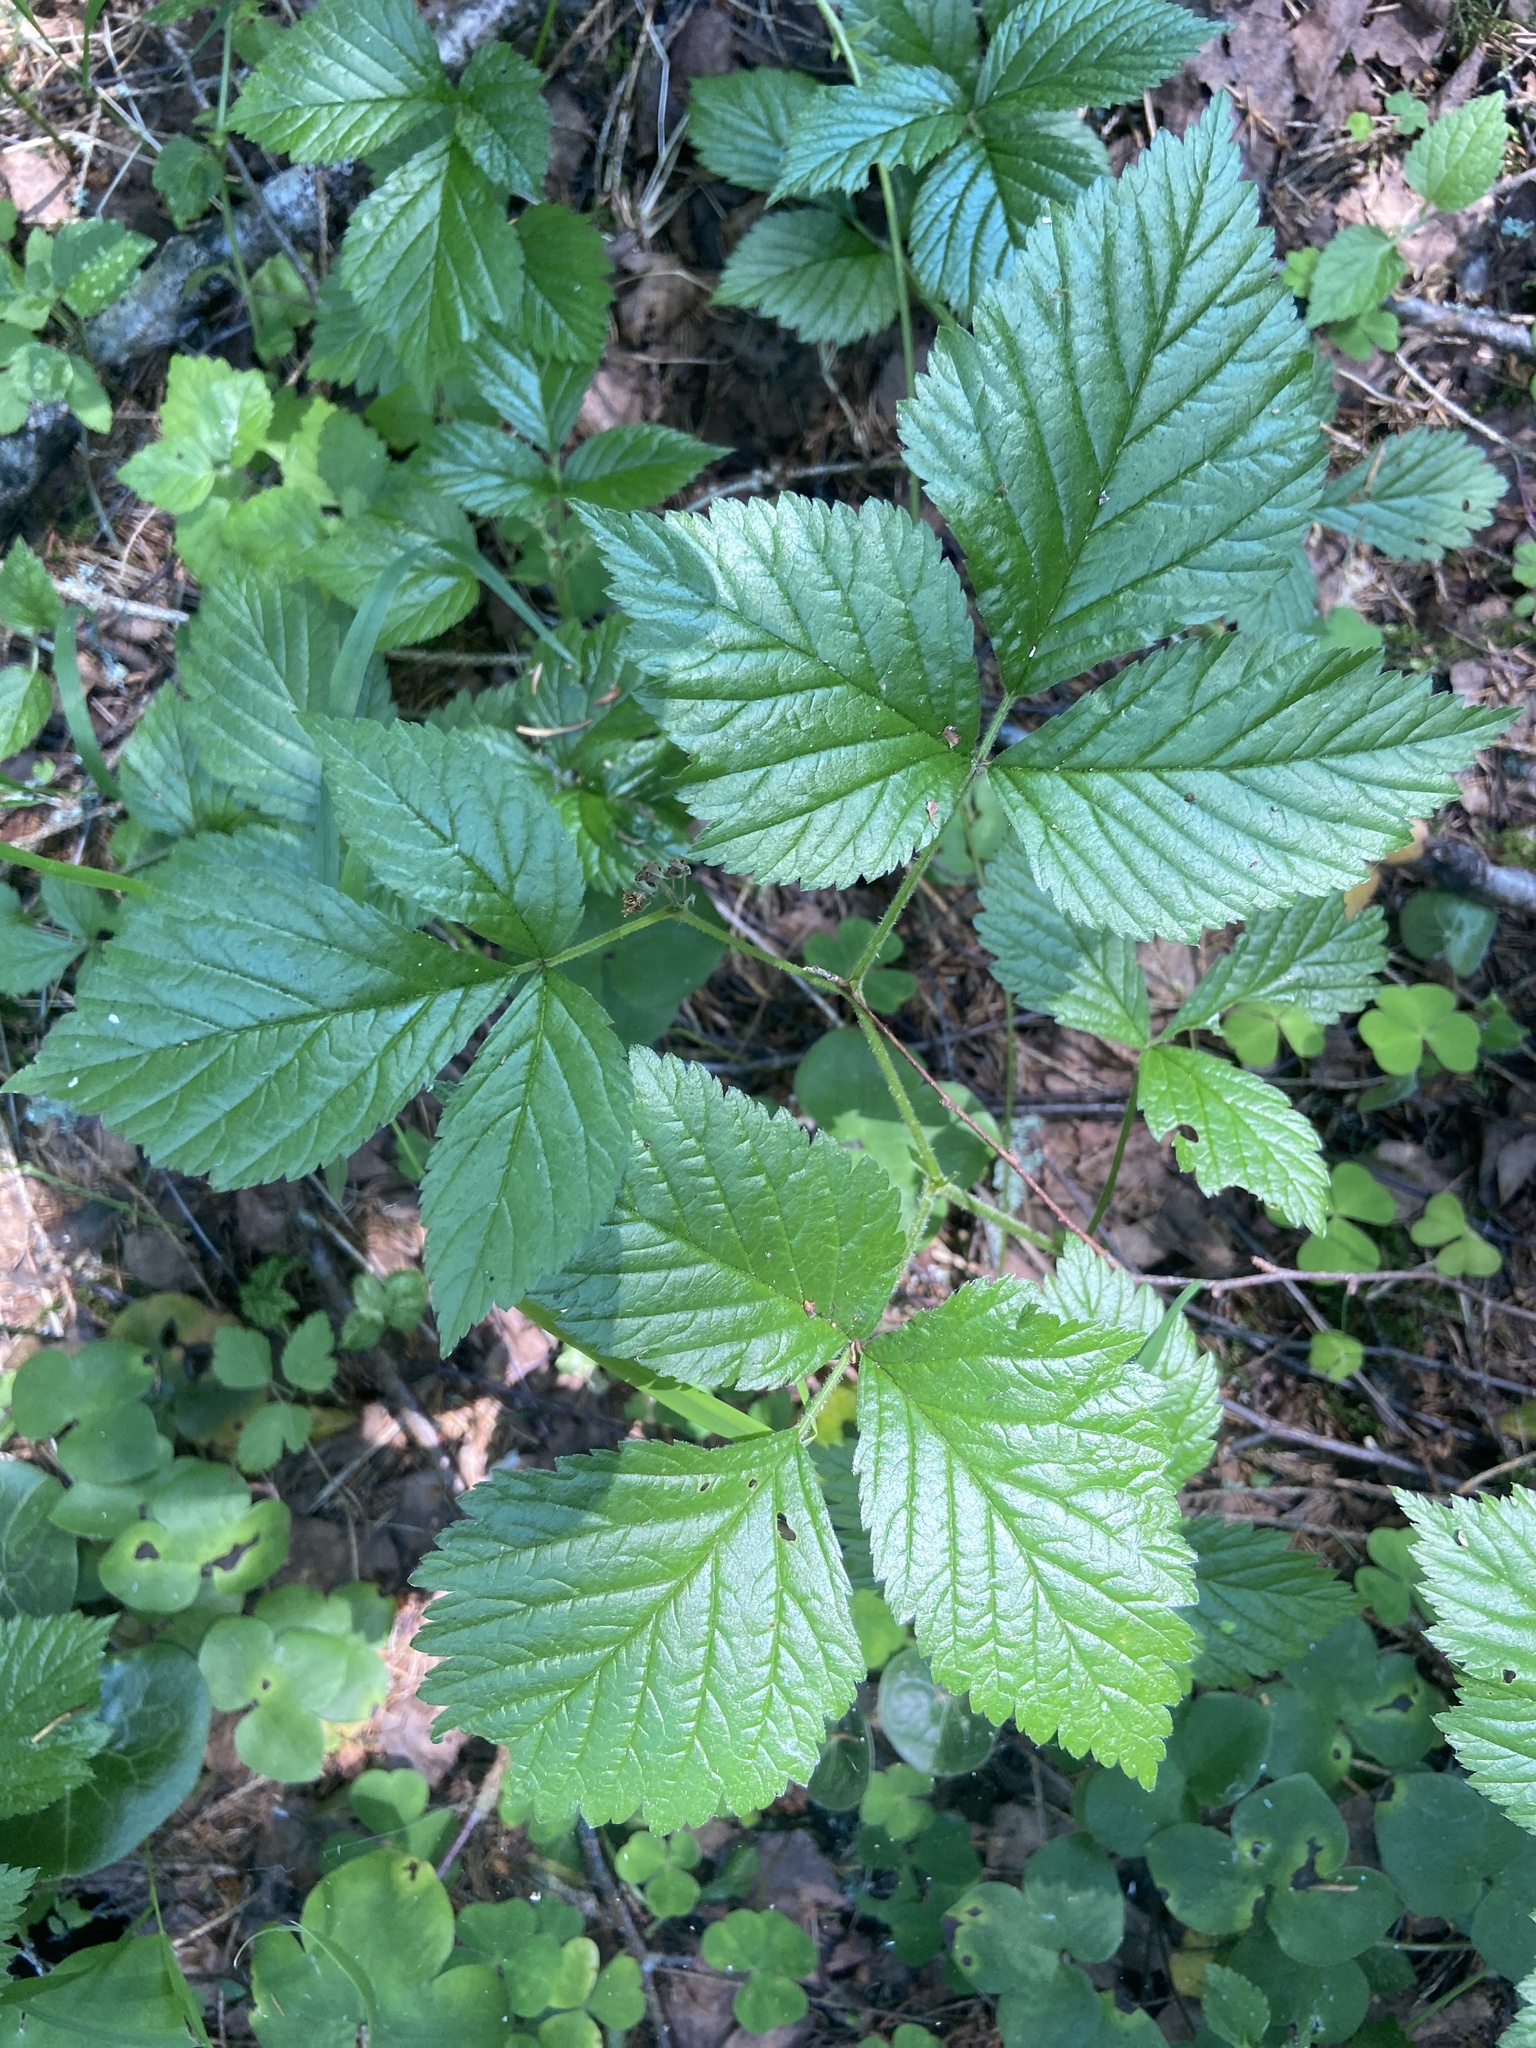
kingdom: Plantae
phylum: Tracheophyta
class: Magnoliopsida
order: Rosales
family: Rosaceae
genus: Rubus
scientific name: Rubus saxatilis
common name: Stone bramble
